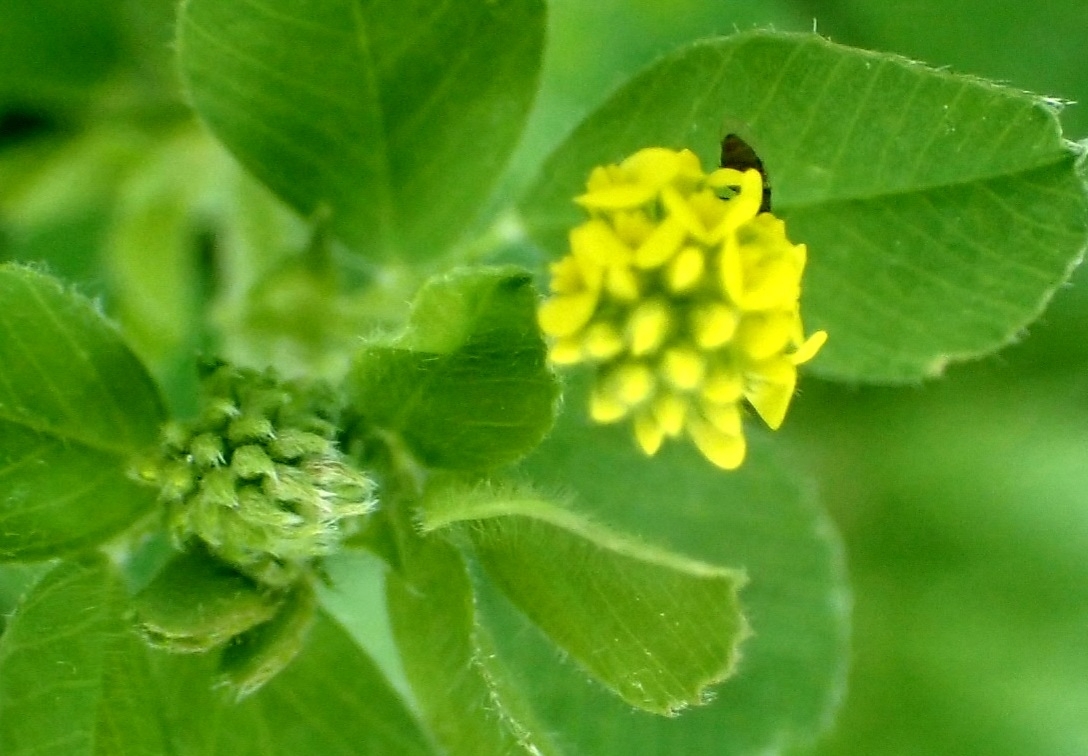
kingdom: Plantae
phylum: Tracheophyta
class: Magnoliopsida
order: Fabales
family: Fabaceae
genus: Medicago
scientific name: Medicago lupulina
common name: Black medick
